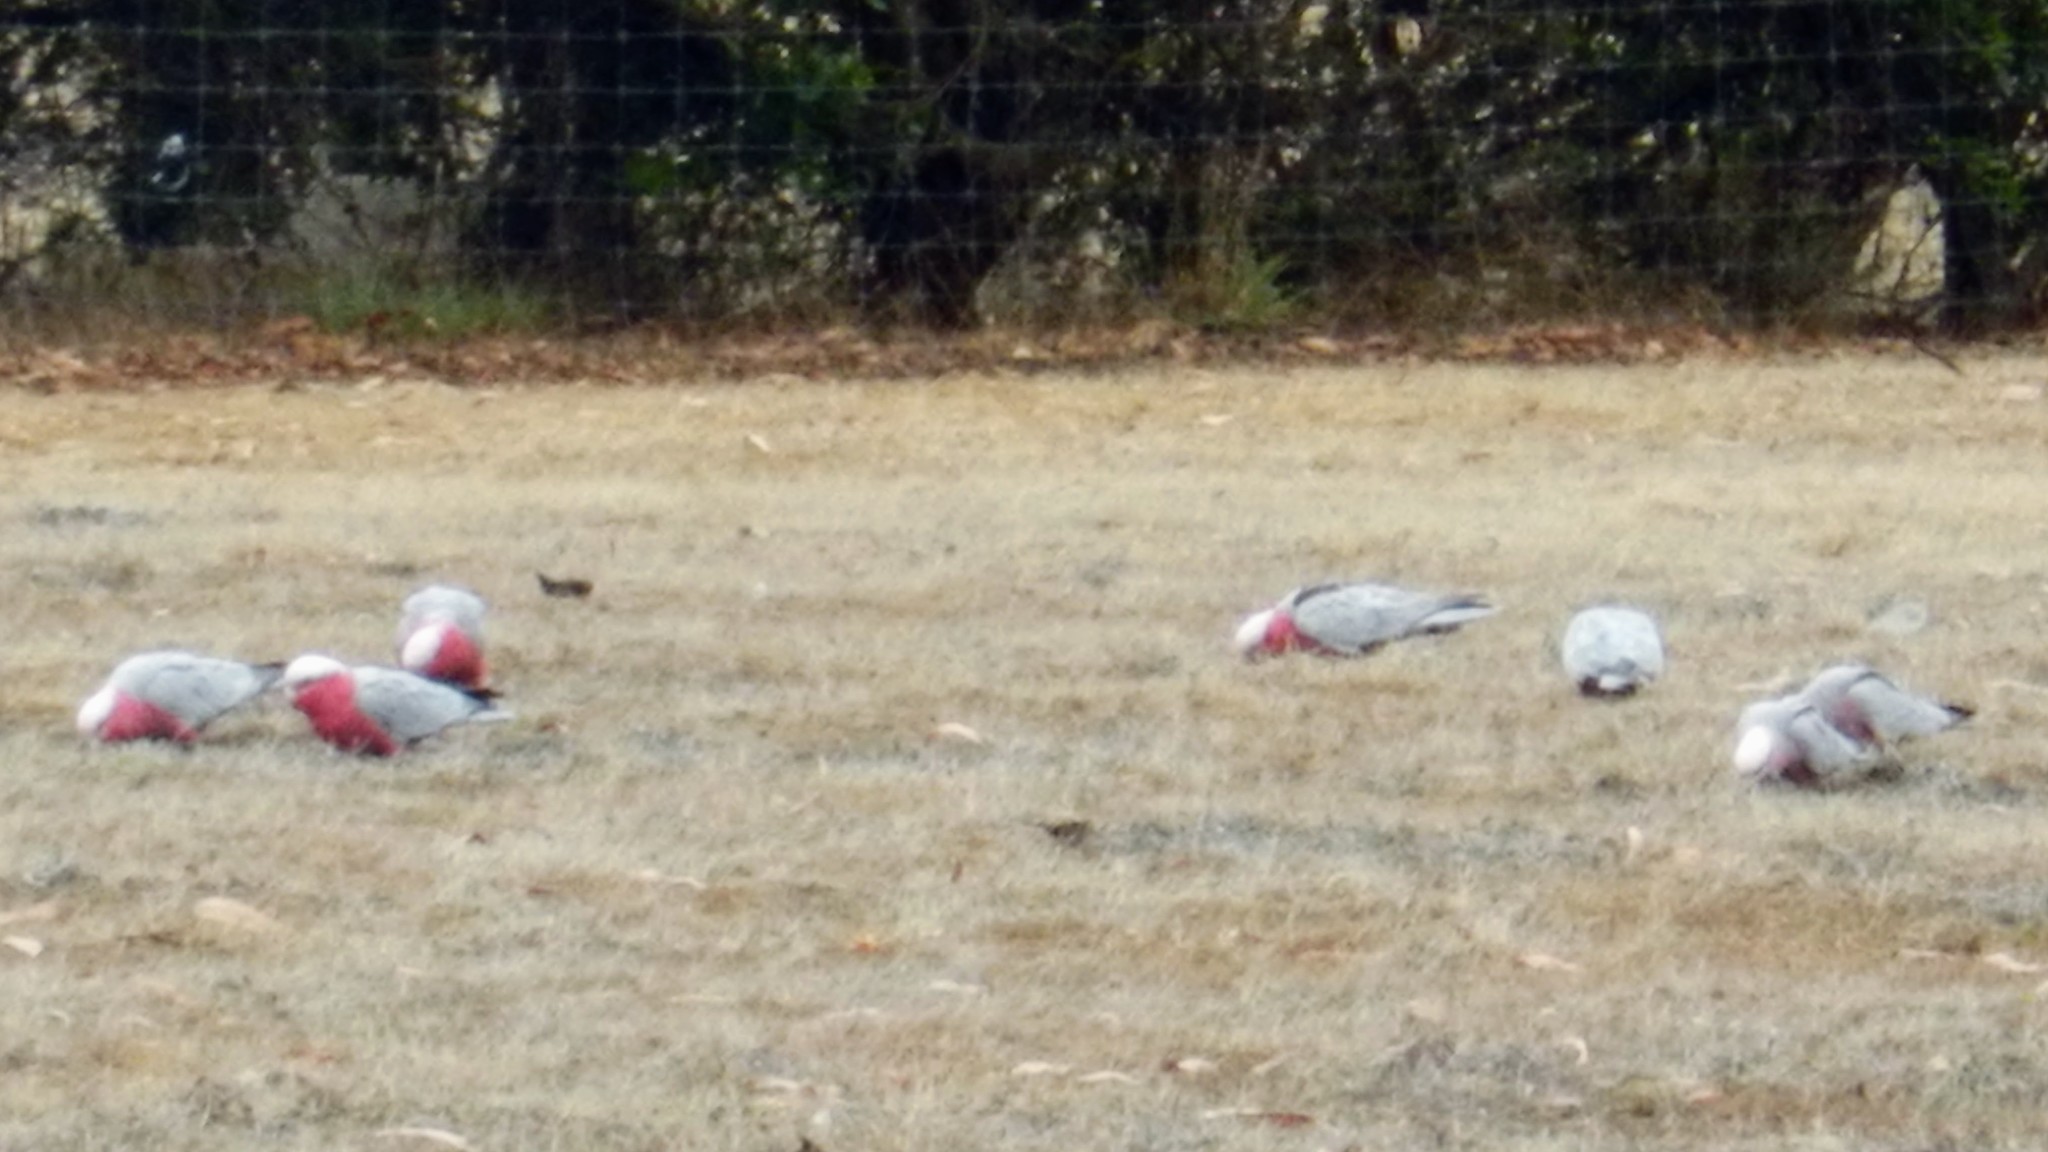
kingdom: Animalia
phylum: Chordata
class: Aves
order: Psittaciformes
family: Psittacidae
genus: Eolophus
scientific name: Eolophus roseicapilla
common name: Galah
